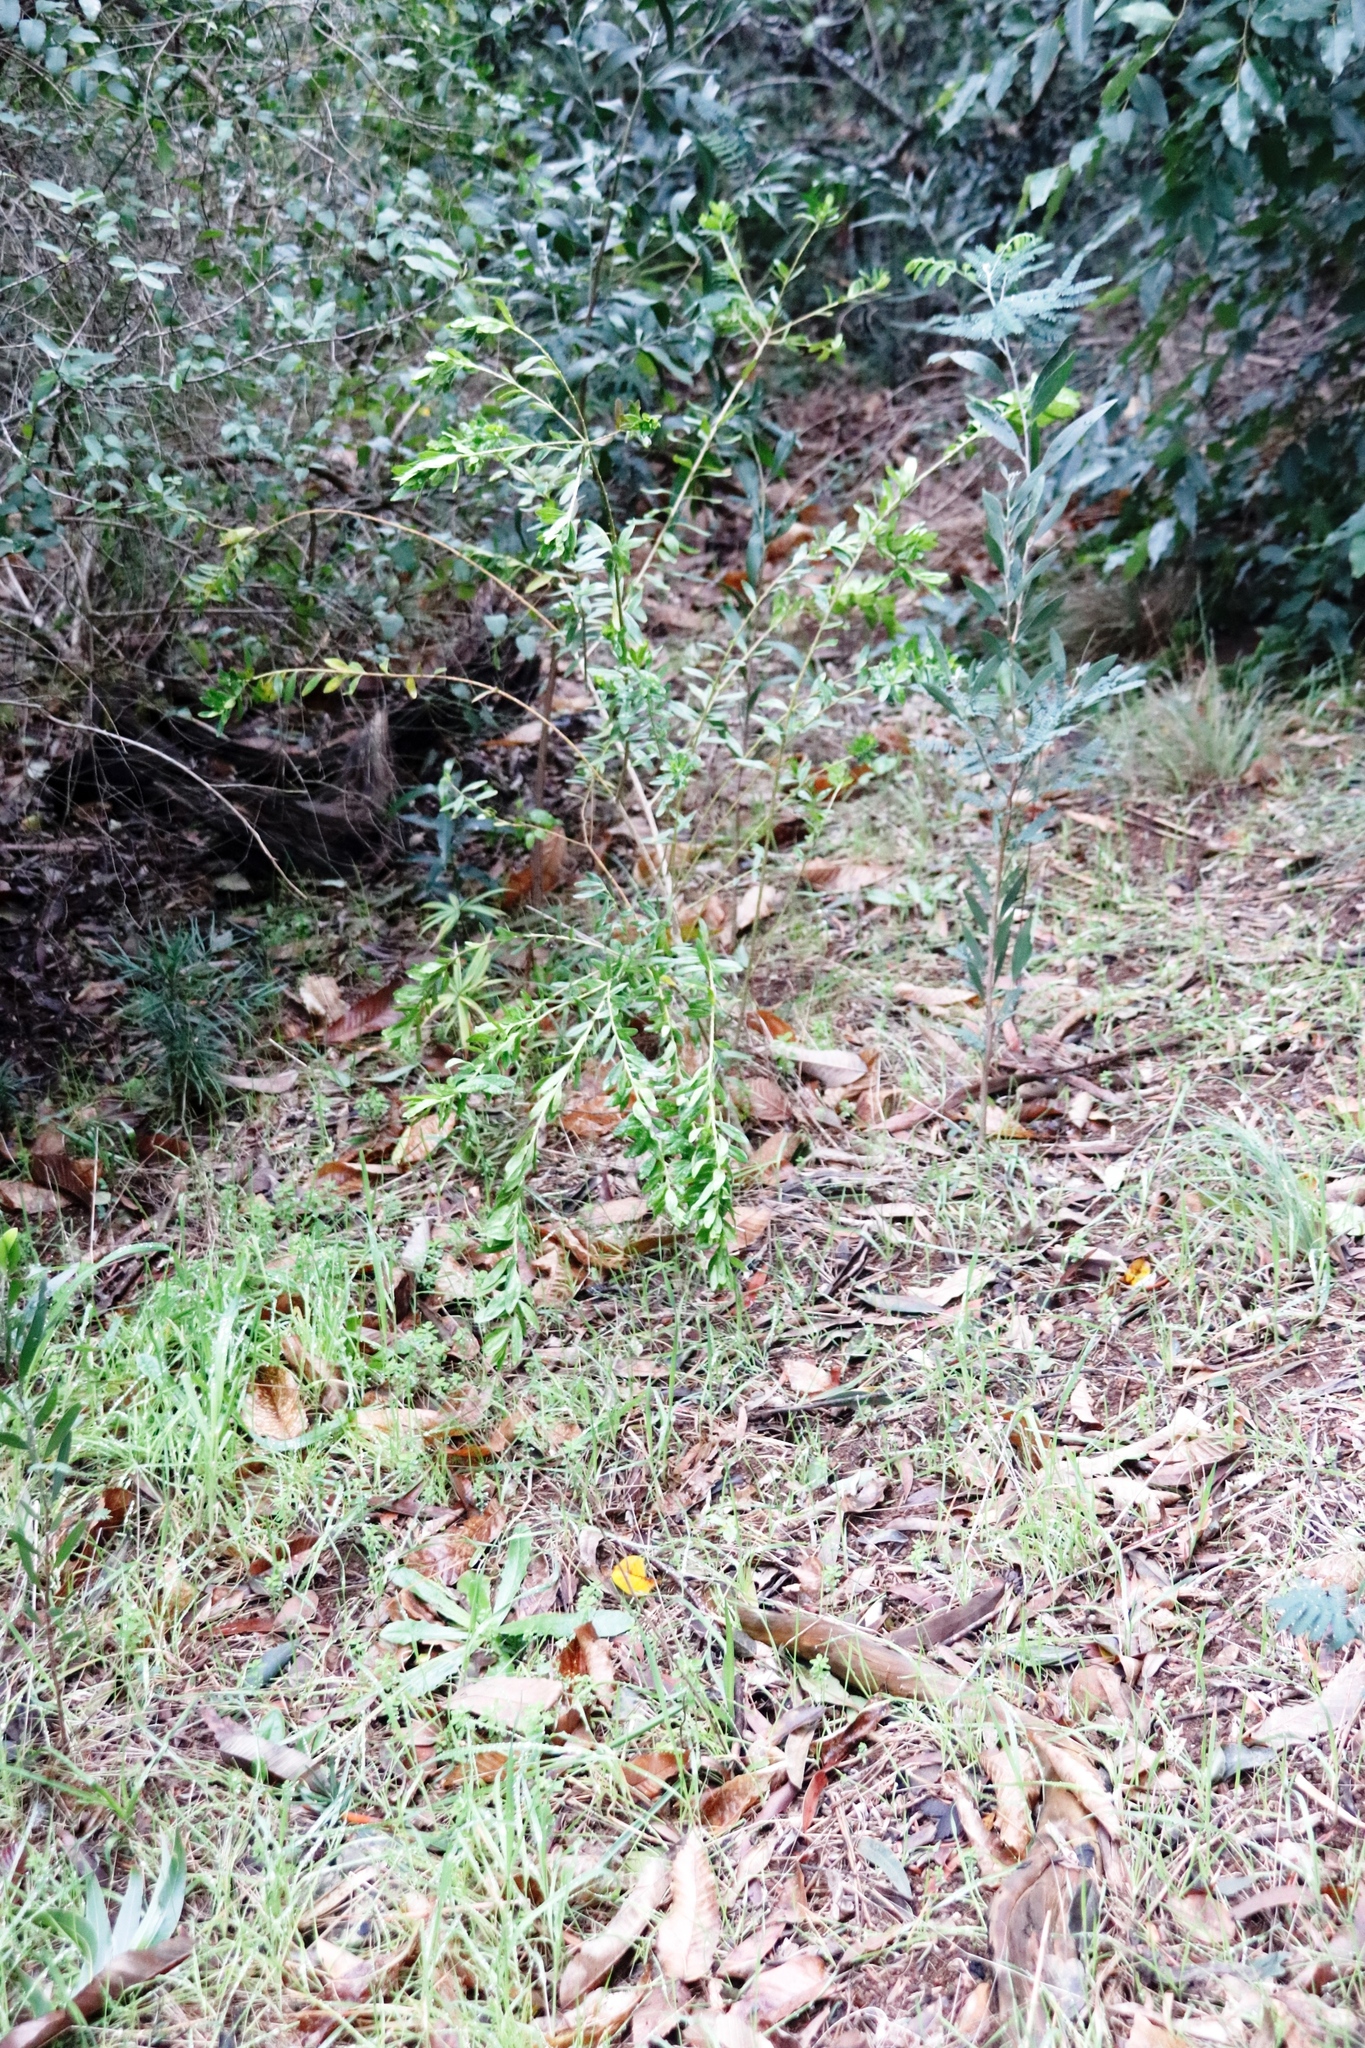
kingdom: Plantae
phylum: Tracheophyta
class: Magnoliopsida
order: Fabales
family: Fabaceae
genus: Acacia
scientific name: Acacia melanoxylon
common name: Blackwood
